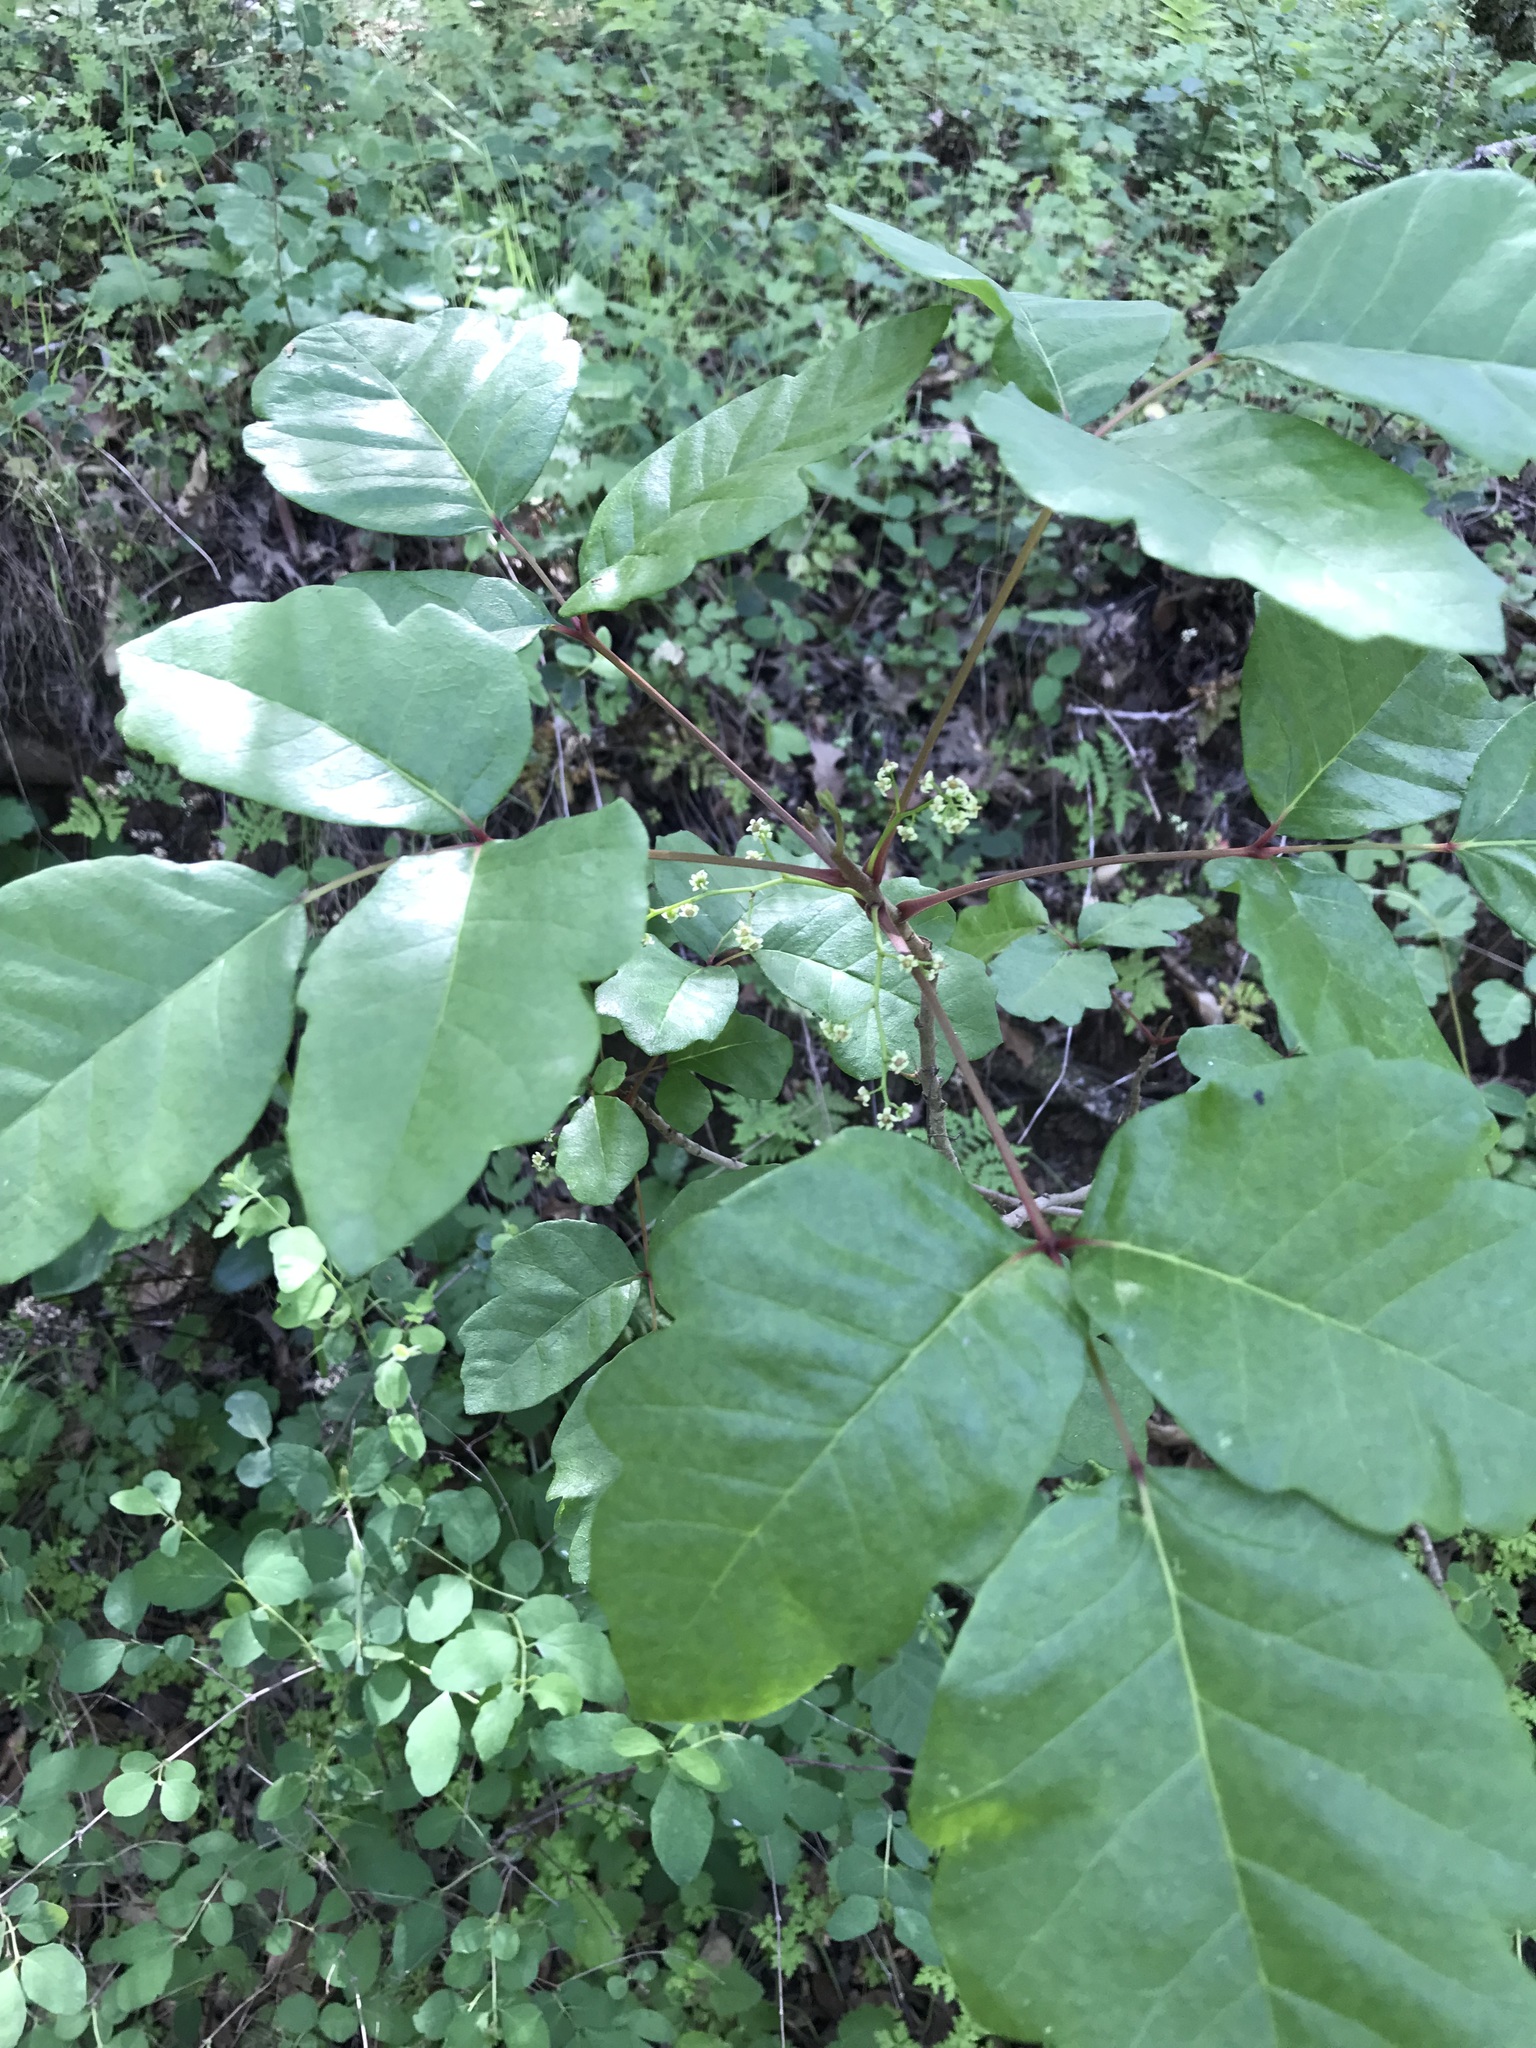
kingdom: Plantae
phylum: Tracheophyta
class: Magnoliopsida
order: Sapindales
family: Anacardiaceae
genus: Toxicodendron
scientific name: Toxicodendron diversilobum
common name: Pacific poison-oak
